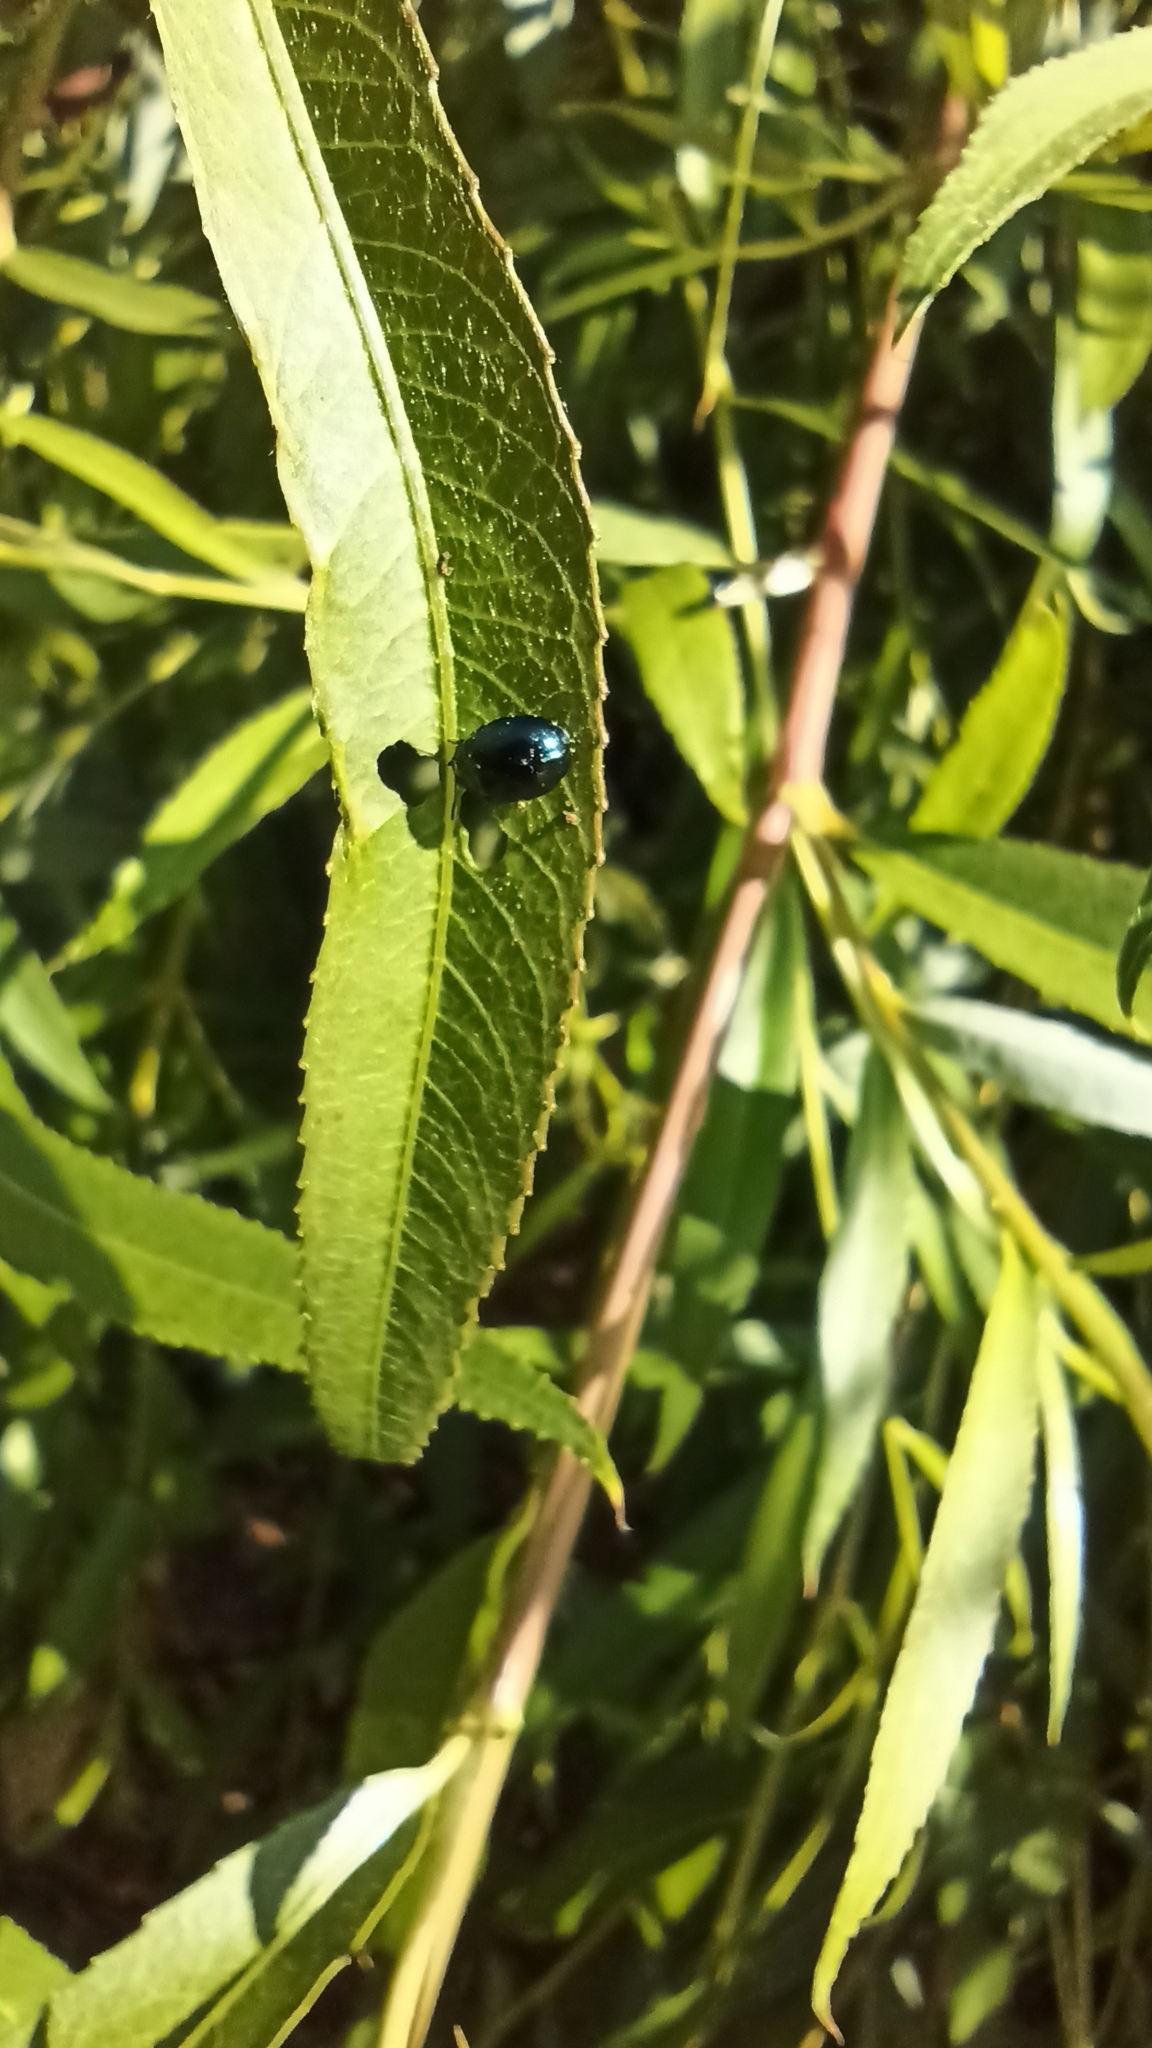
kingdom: Animalia
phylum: Arthropoda
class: Insecta
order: Coleoptera
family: Chrysomelidae
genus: Plagiodera
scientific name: Plagiodera versicolora
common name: Imported willow leaf beetle
